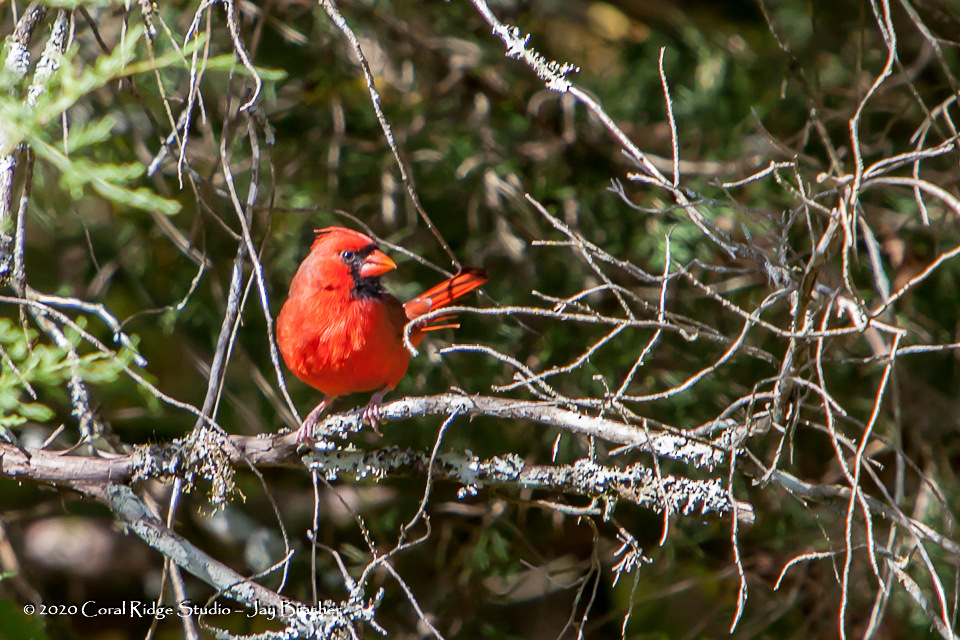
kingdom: Animalia
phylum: Chordata
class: Aves
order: Passeriformes
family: Cardinalidae
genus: Cardinalis
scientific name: Cardinalis cardinalis
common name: Northern cardinal
